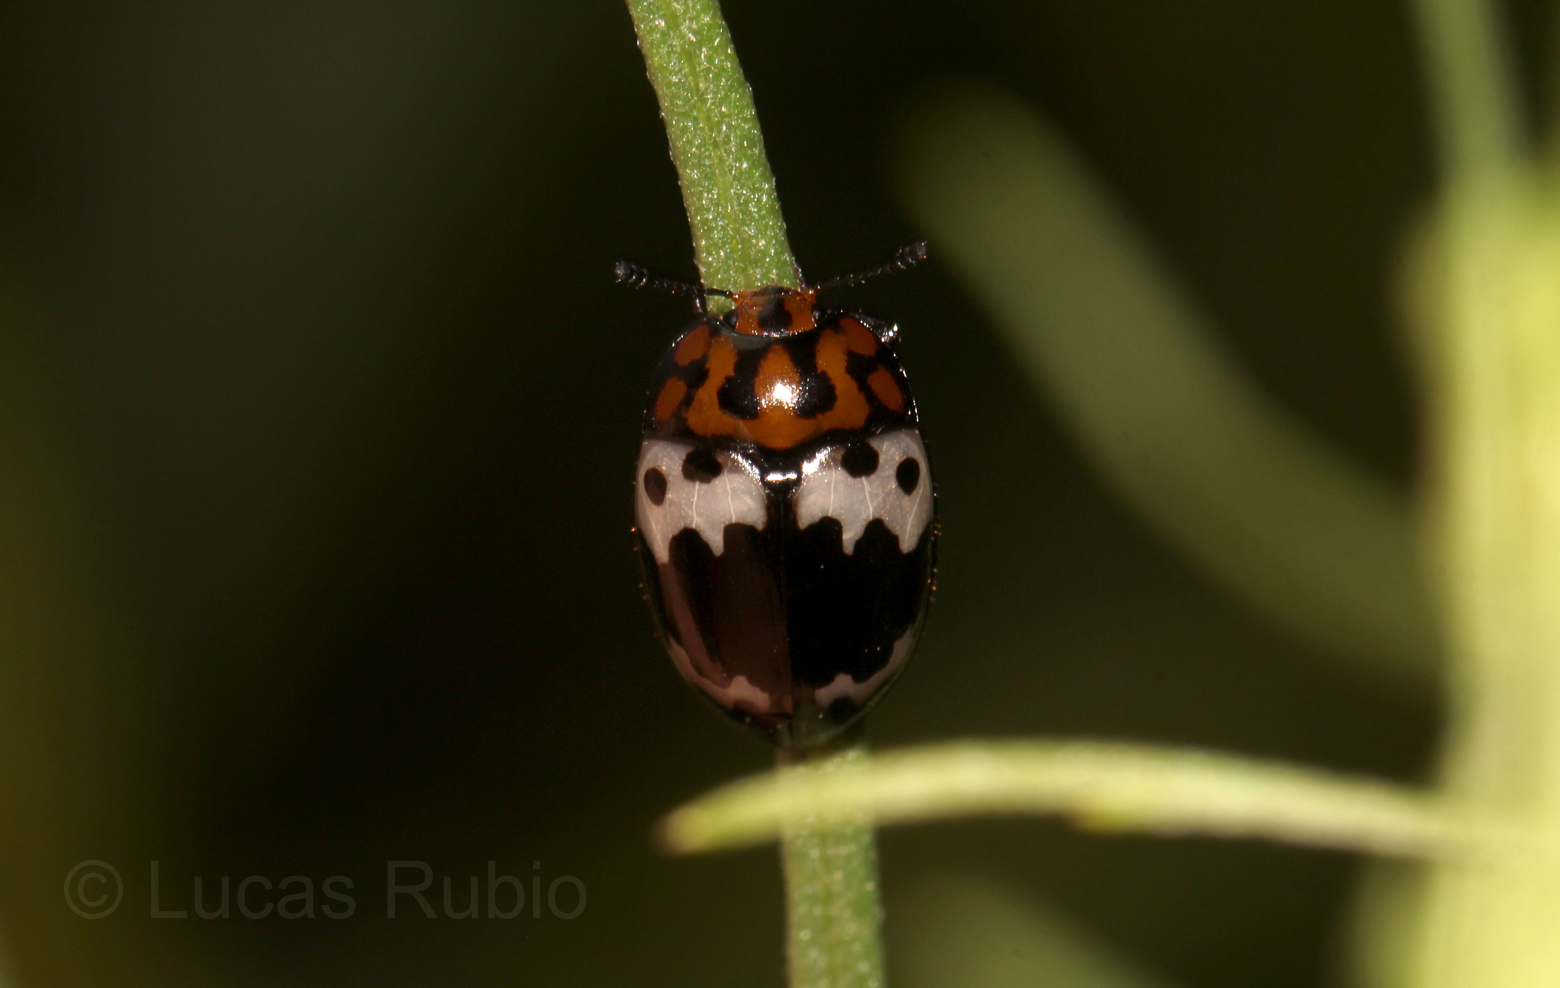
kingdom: Animalia
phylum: Arthropoda
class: Insecta
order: Coleoptera
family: Erotylidae
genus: Iphiclus
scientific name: Iphiclus
